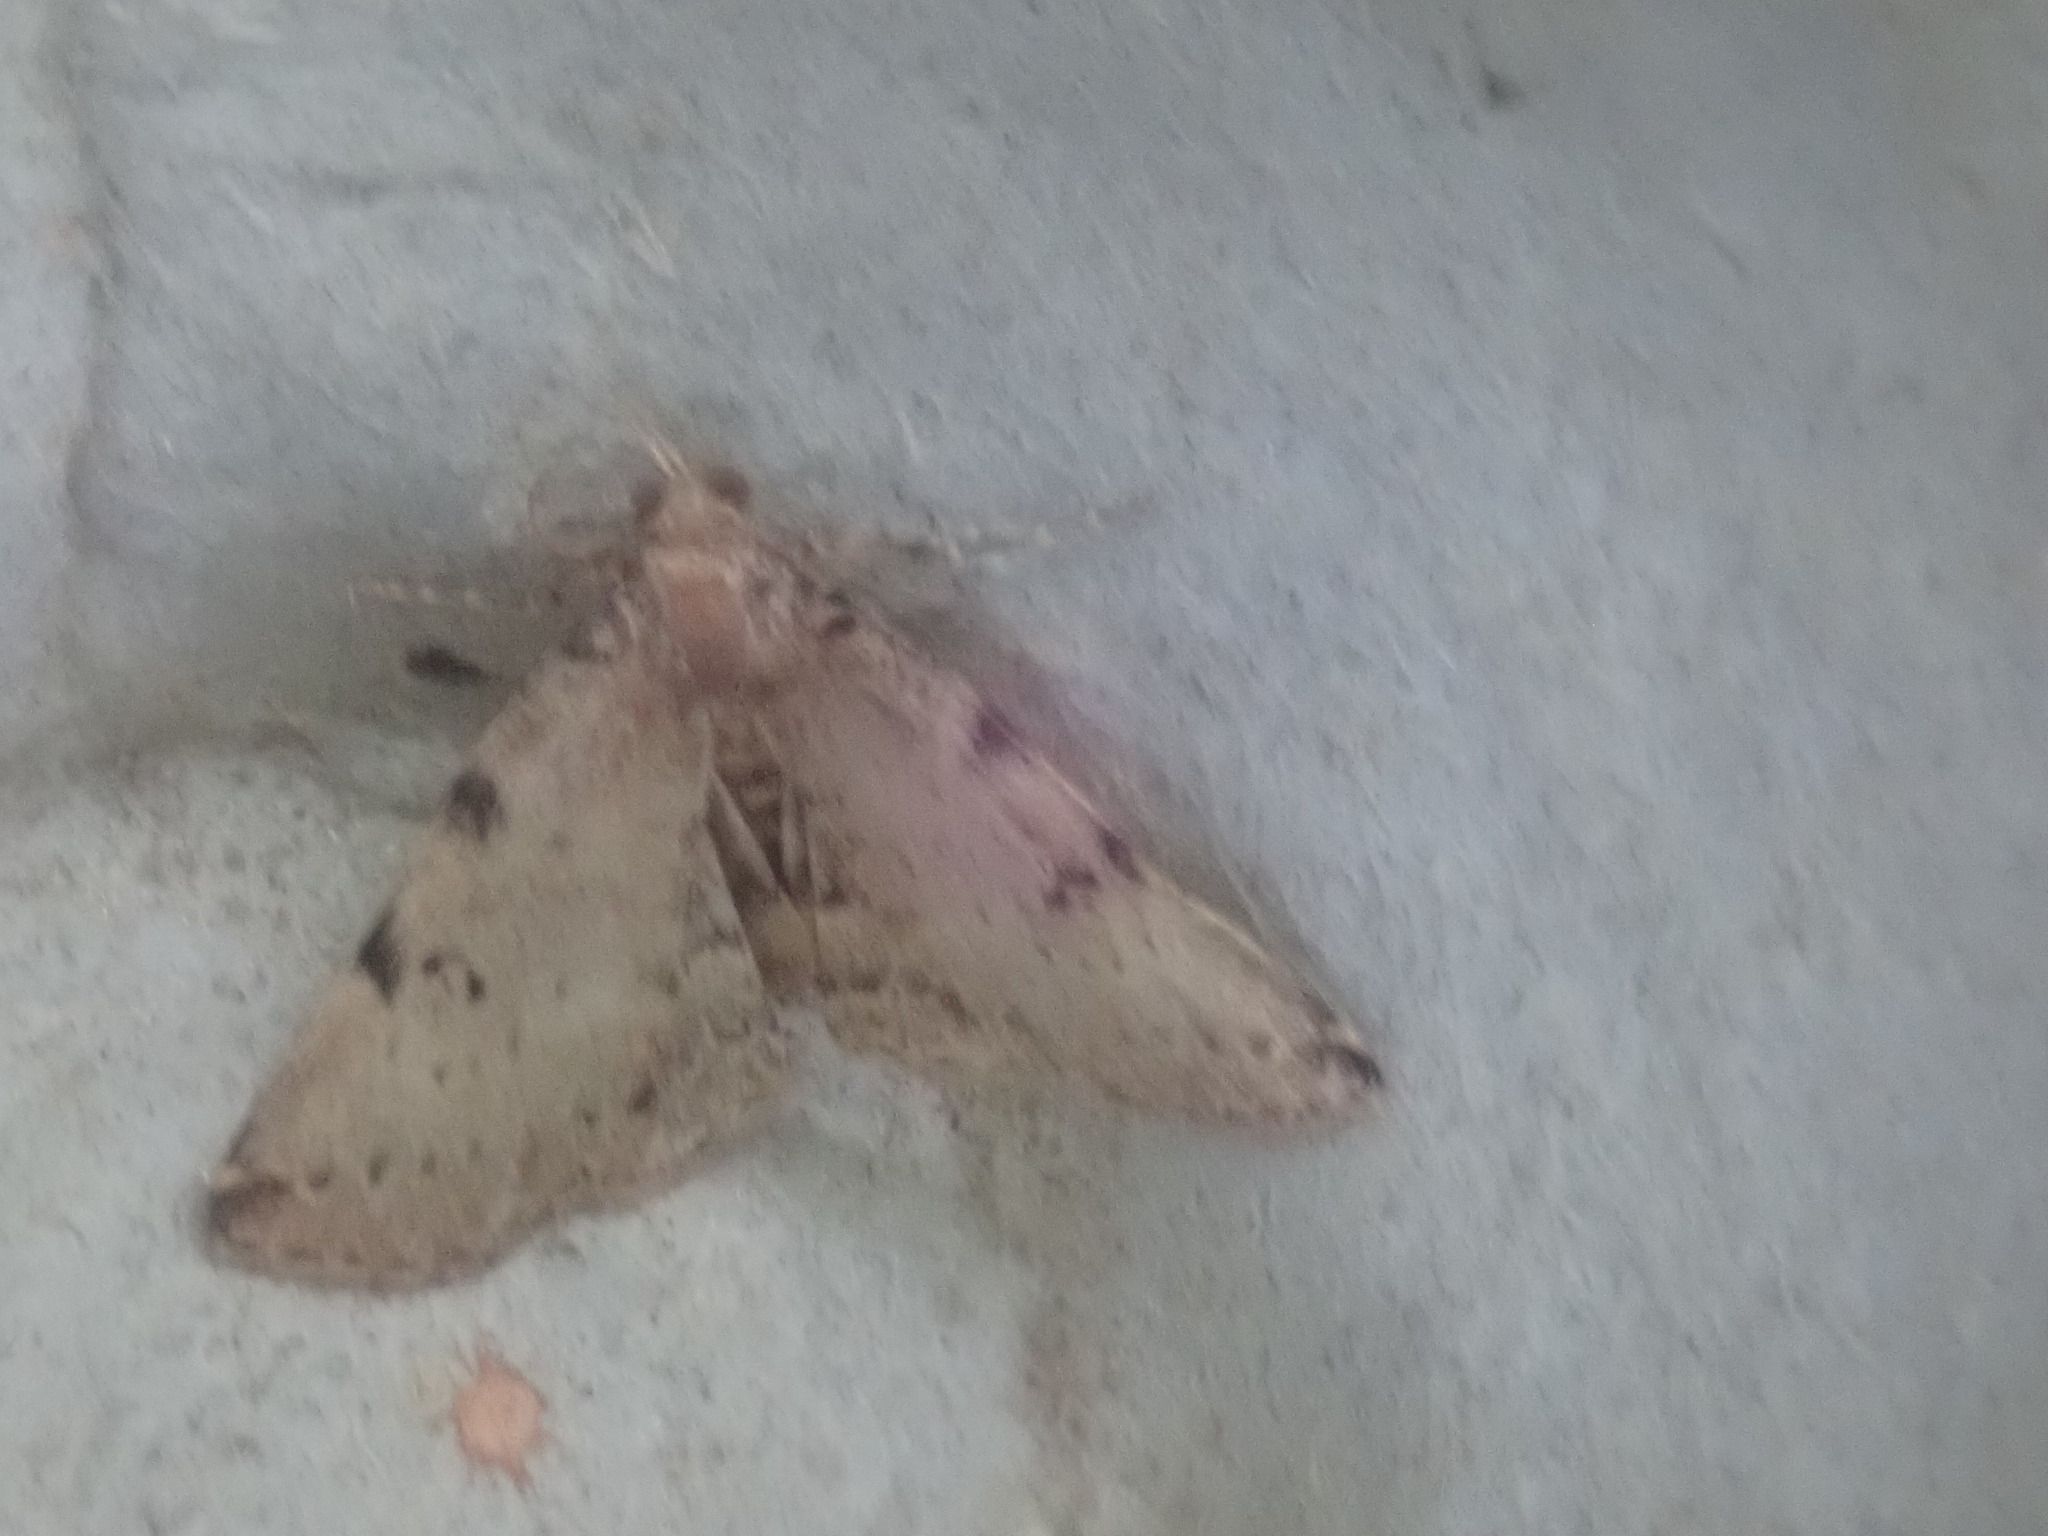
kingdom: Animalia
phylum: Arthropoda
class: Insecta
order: Lepidoptera
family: Erebidae
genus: Zanclognatha
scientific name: Zanclognatha lituralis
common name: Lettered fan-foot
